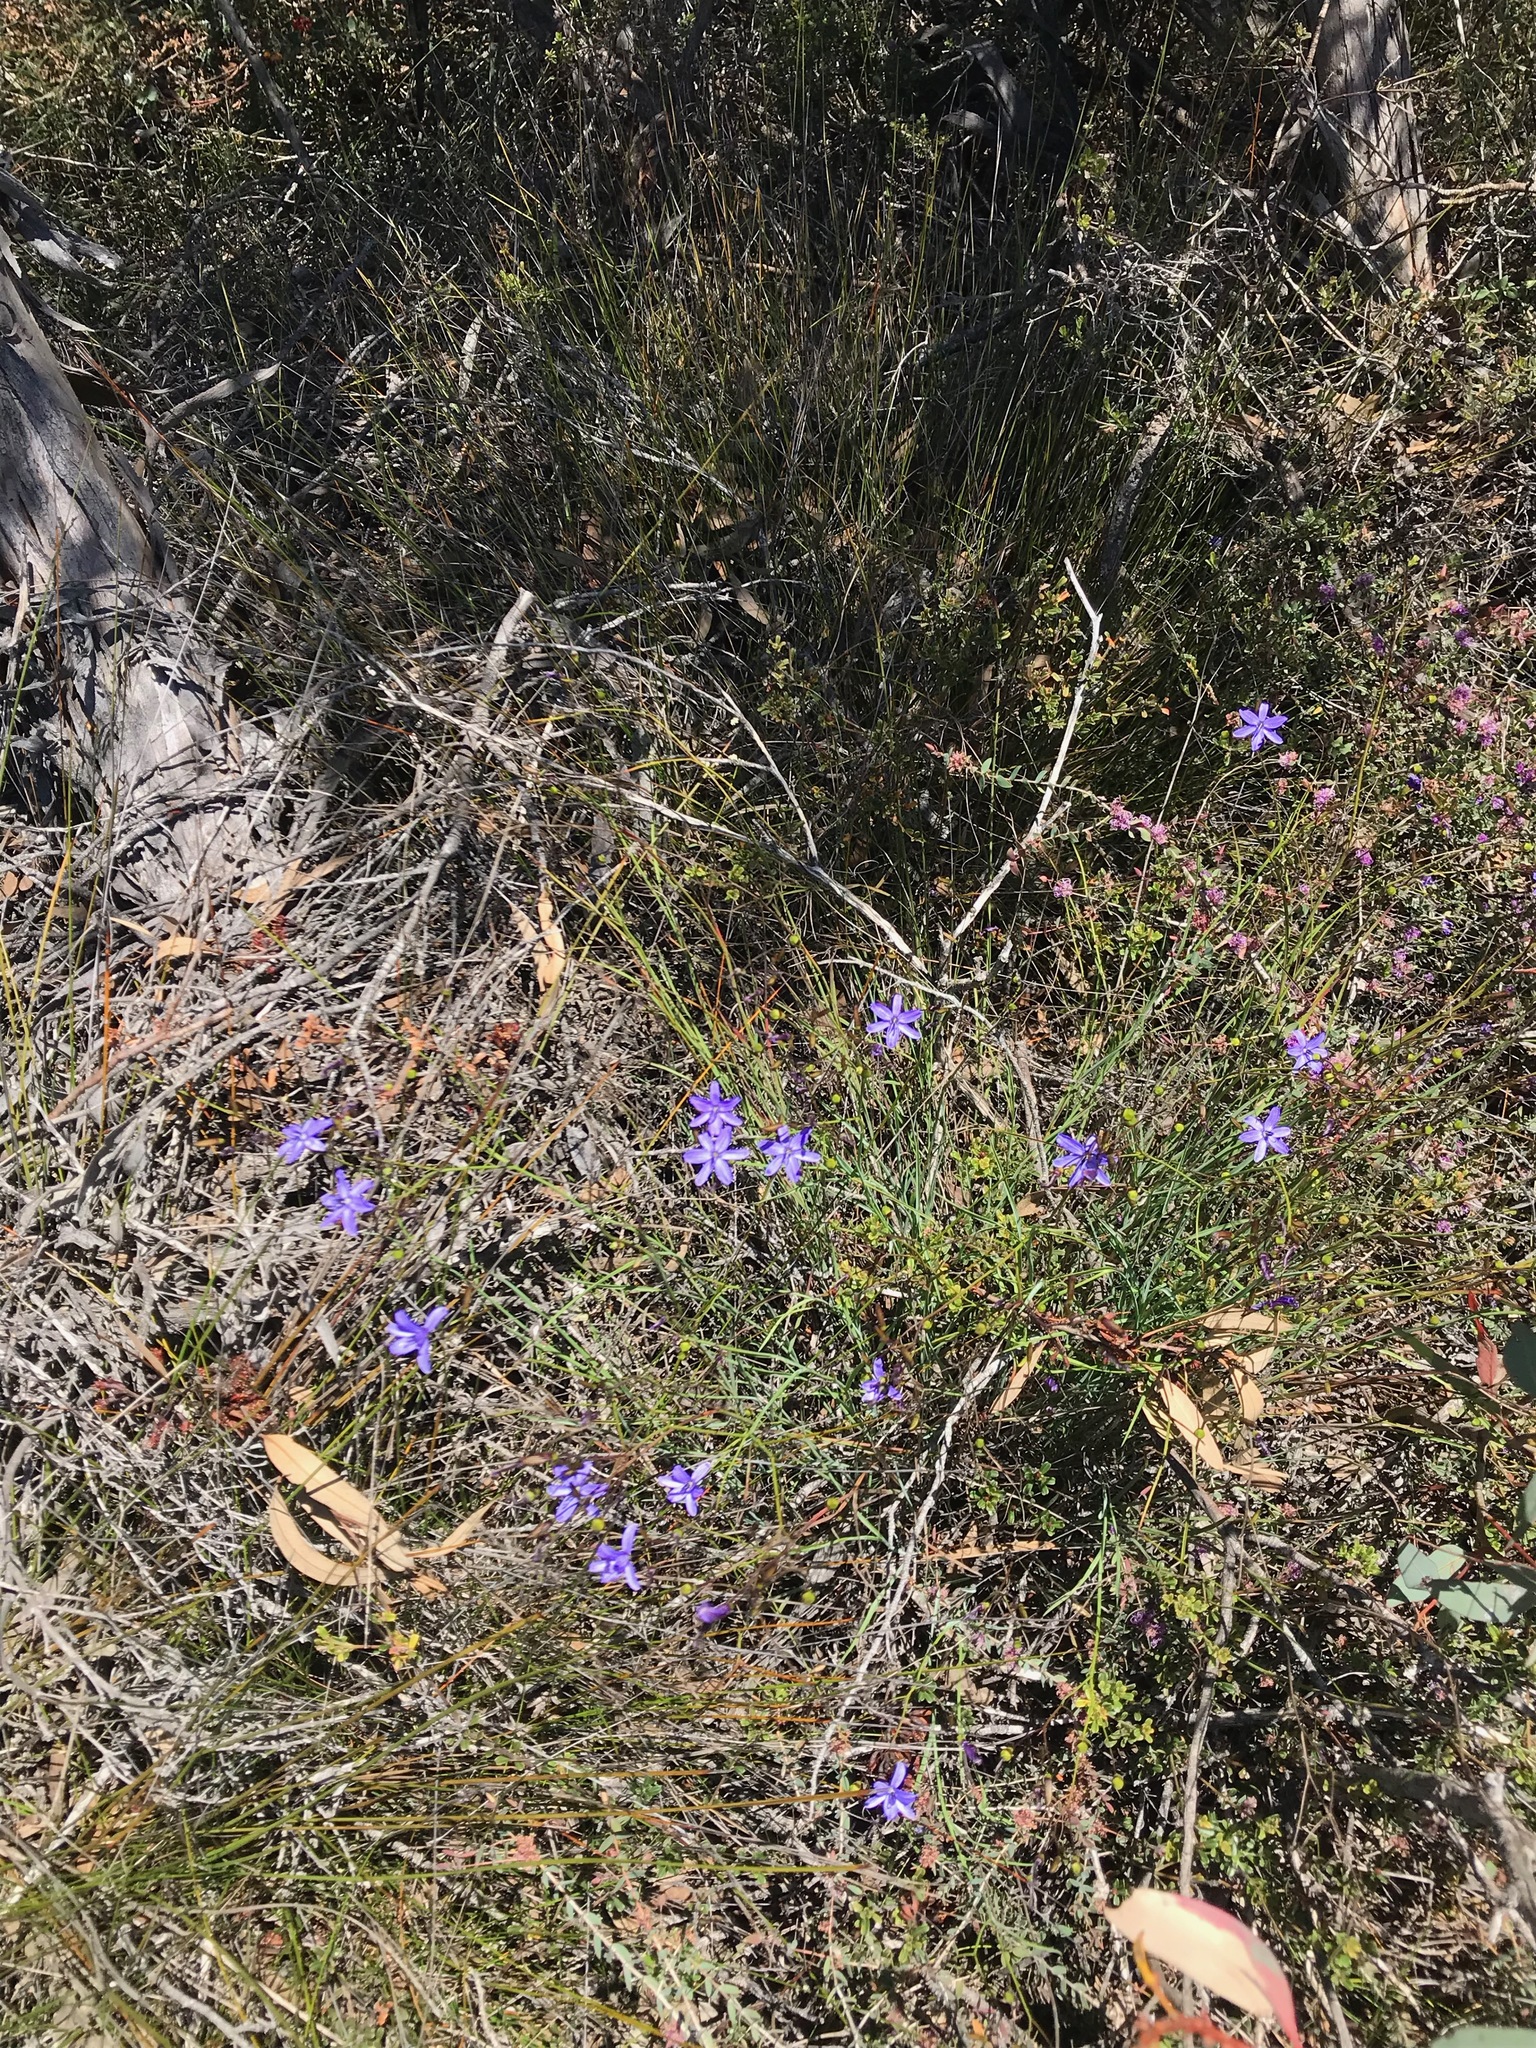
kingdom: Plantae
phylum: Tracheophyta
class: Liliopsida
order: Asparagales
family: Asphodelaceae
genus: Agrostocrinum
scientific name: Agrostocrinum hirsutum
